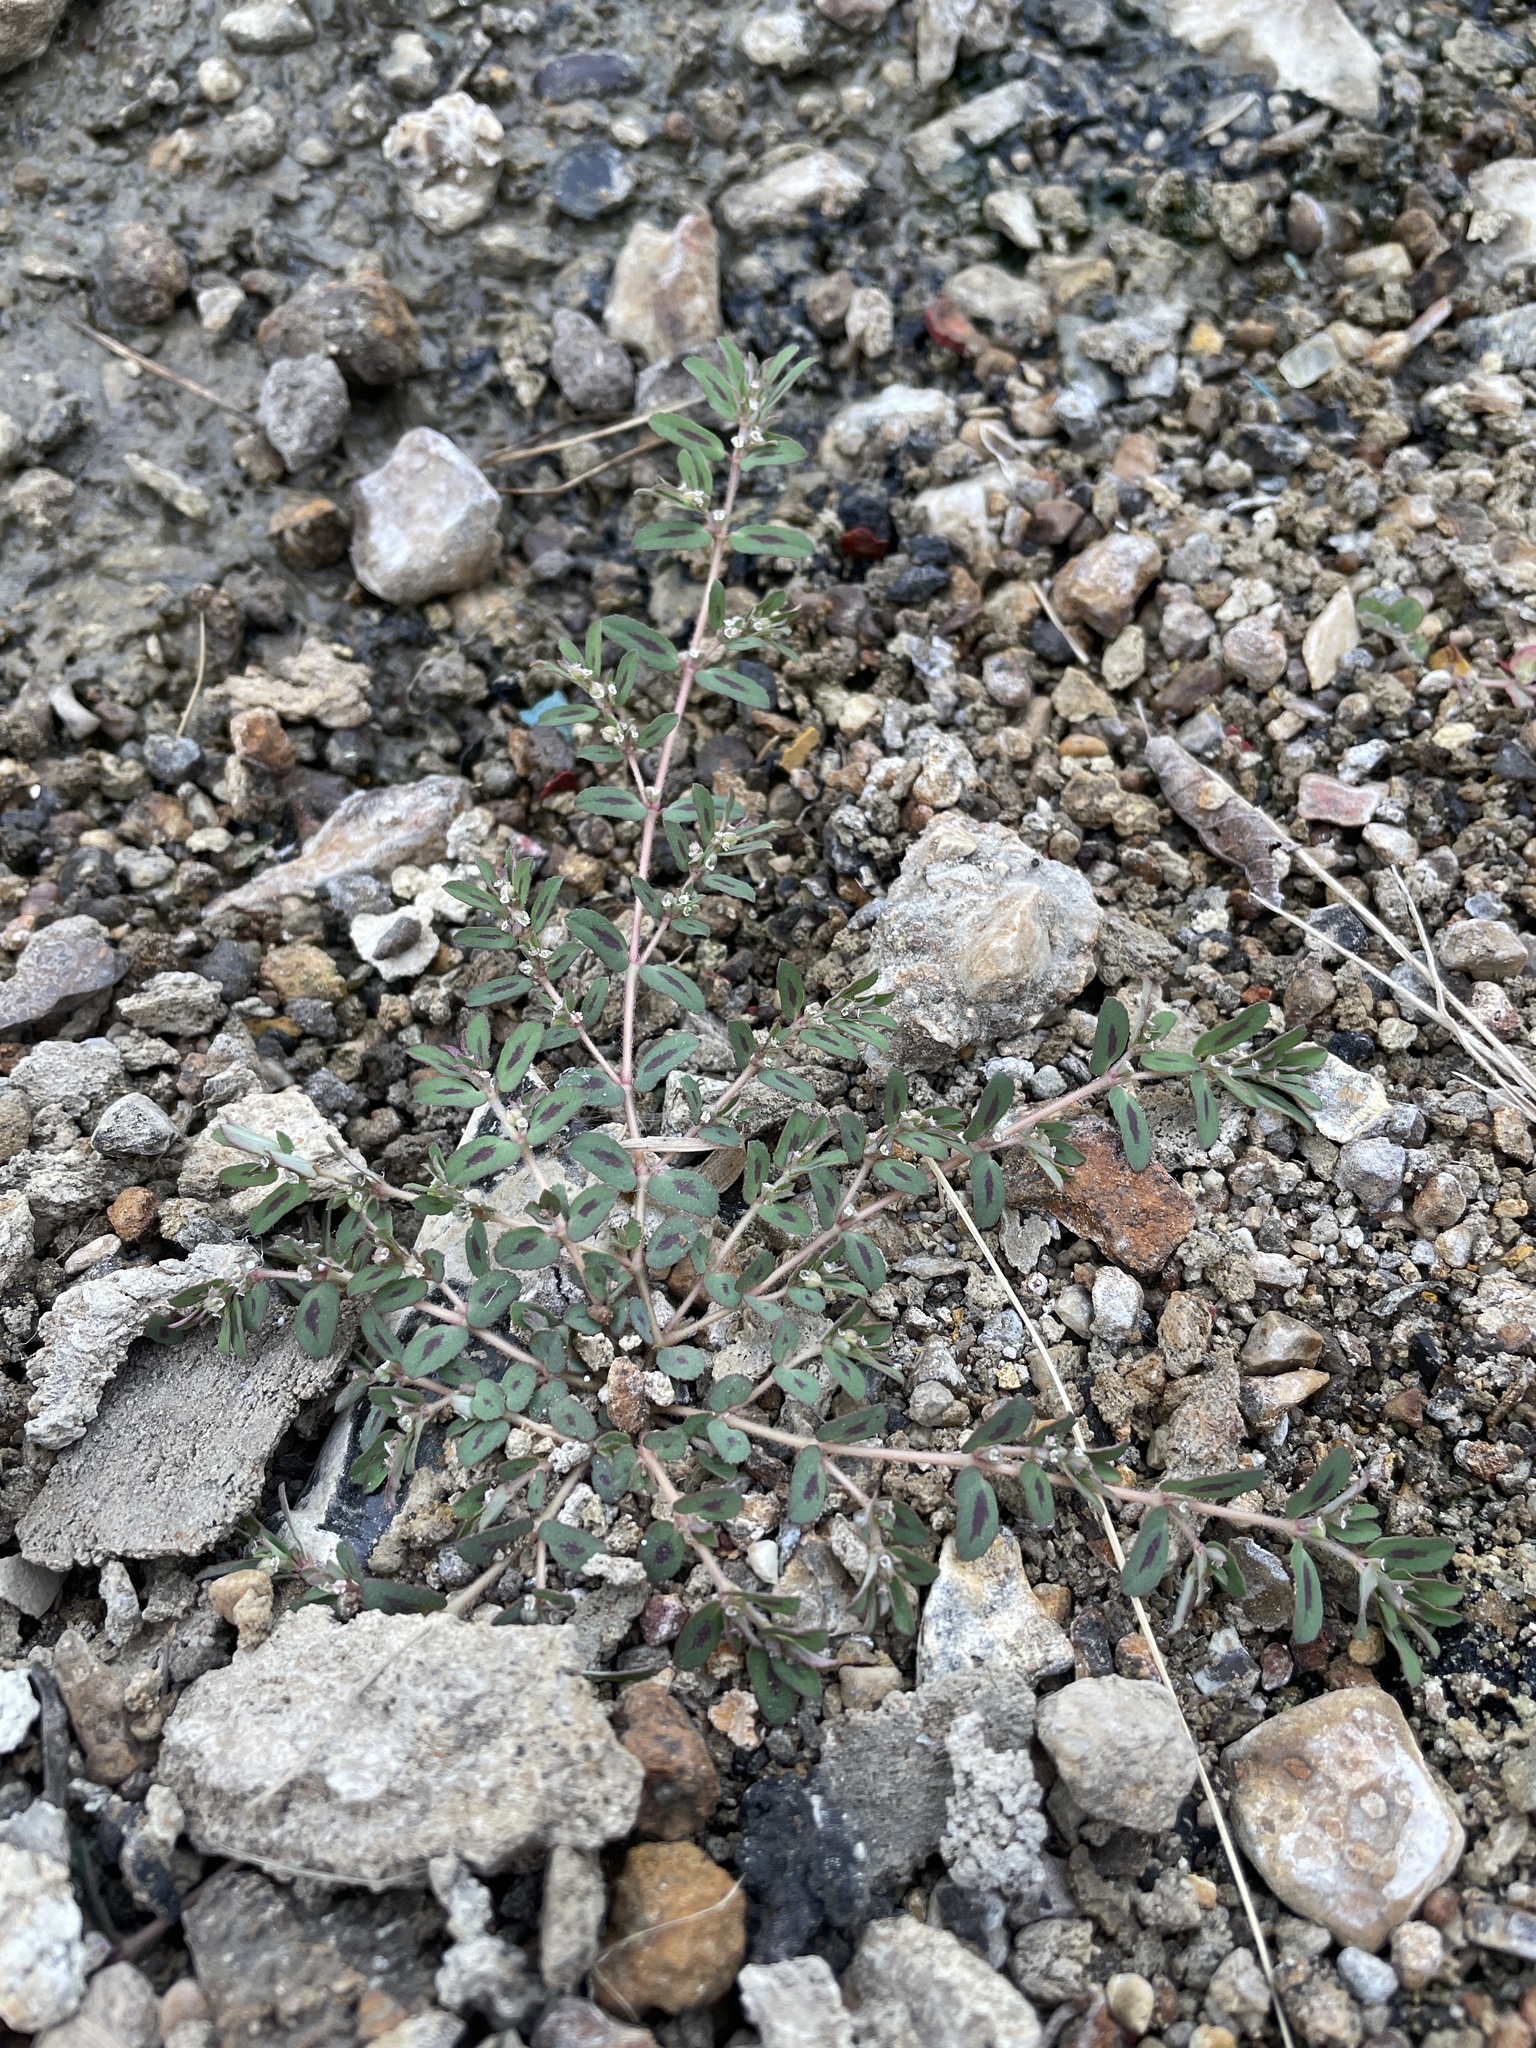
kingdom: Plantae
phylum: Tracheophyta
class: Magnoliopsida
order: Malpighiales
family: Euphorbiaceae
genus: Euphorbia
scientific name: Euphorbia maculata
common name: Spotted spurge
